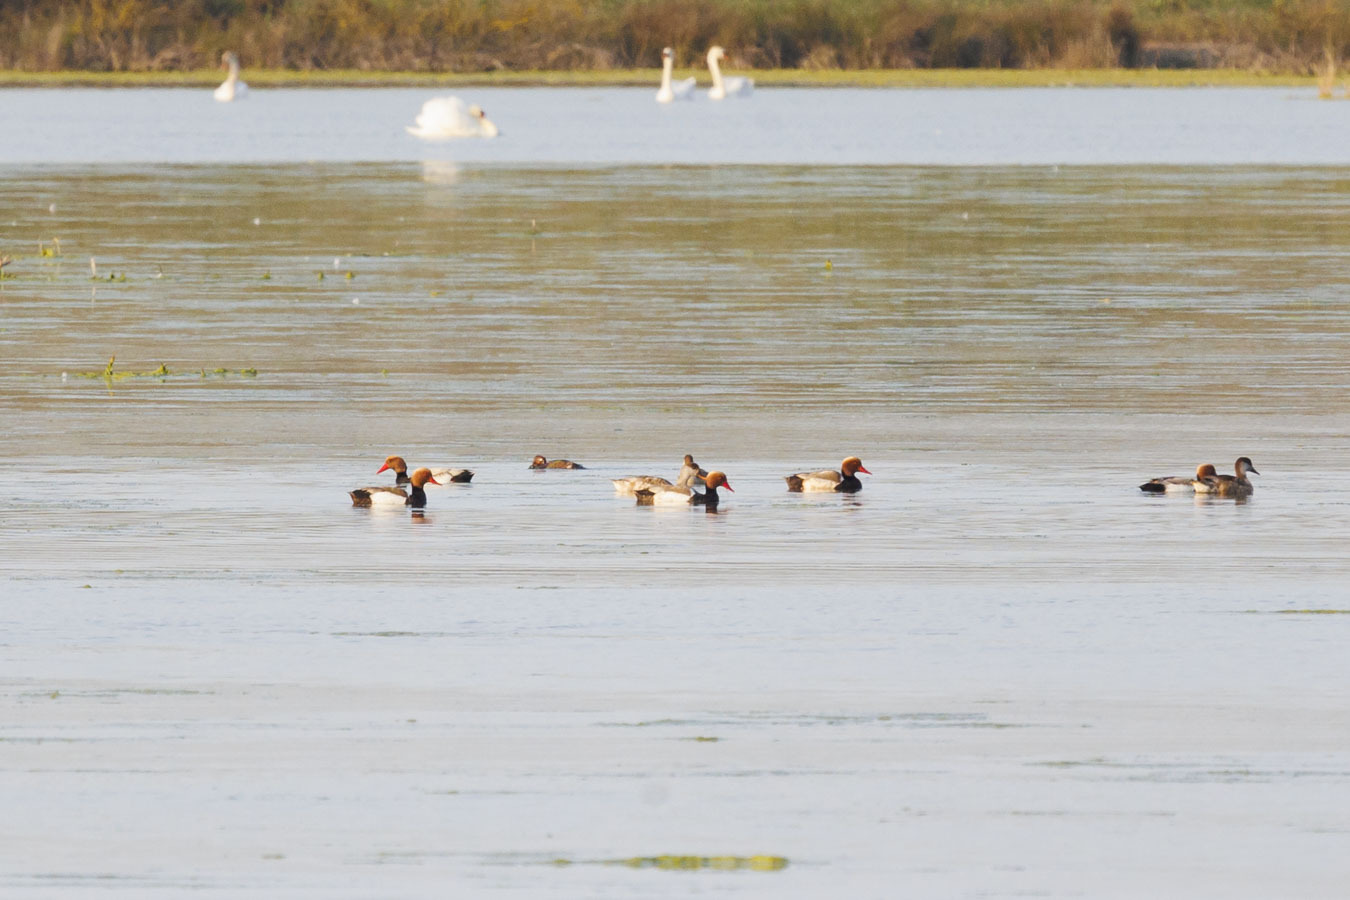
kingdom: Animalia
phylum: Chordata
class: Aves
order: Anseriformes
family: Anatidae
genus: Netta
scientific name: Netta rufina
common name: Red-crested pochard
